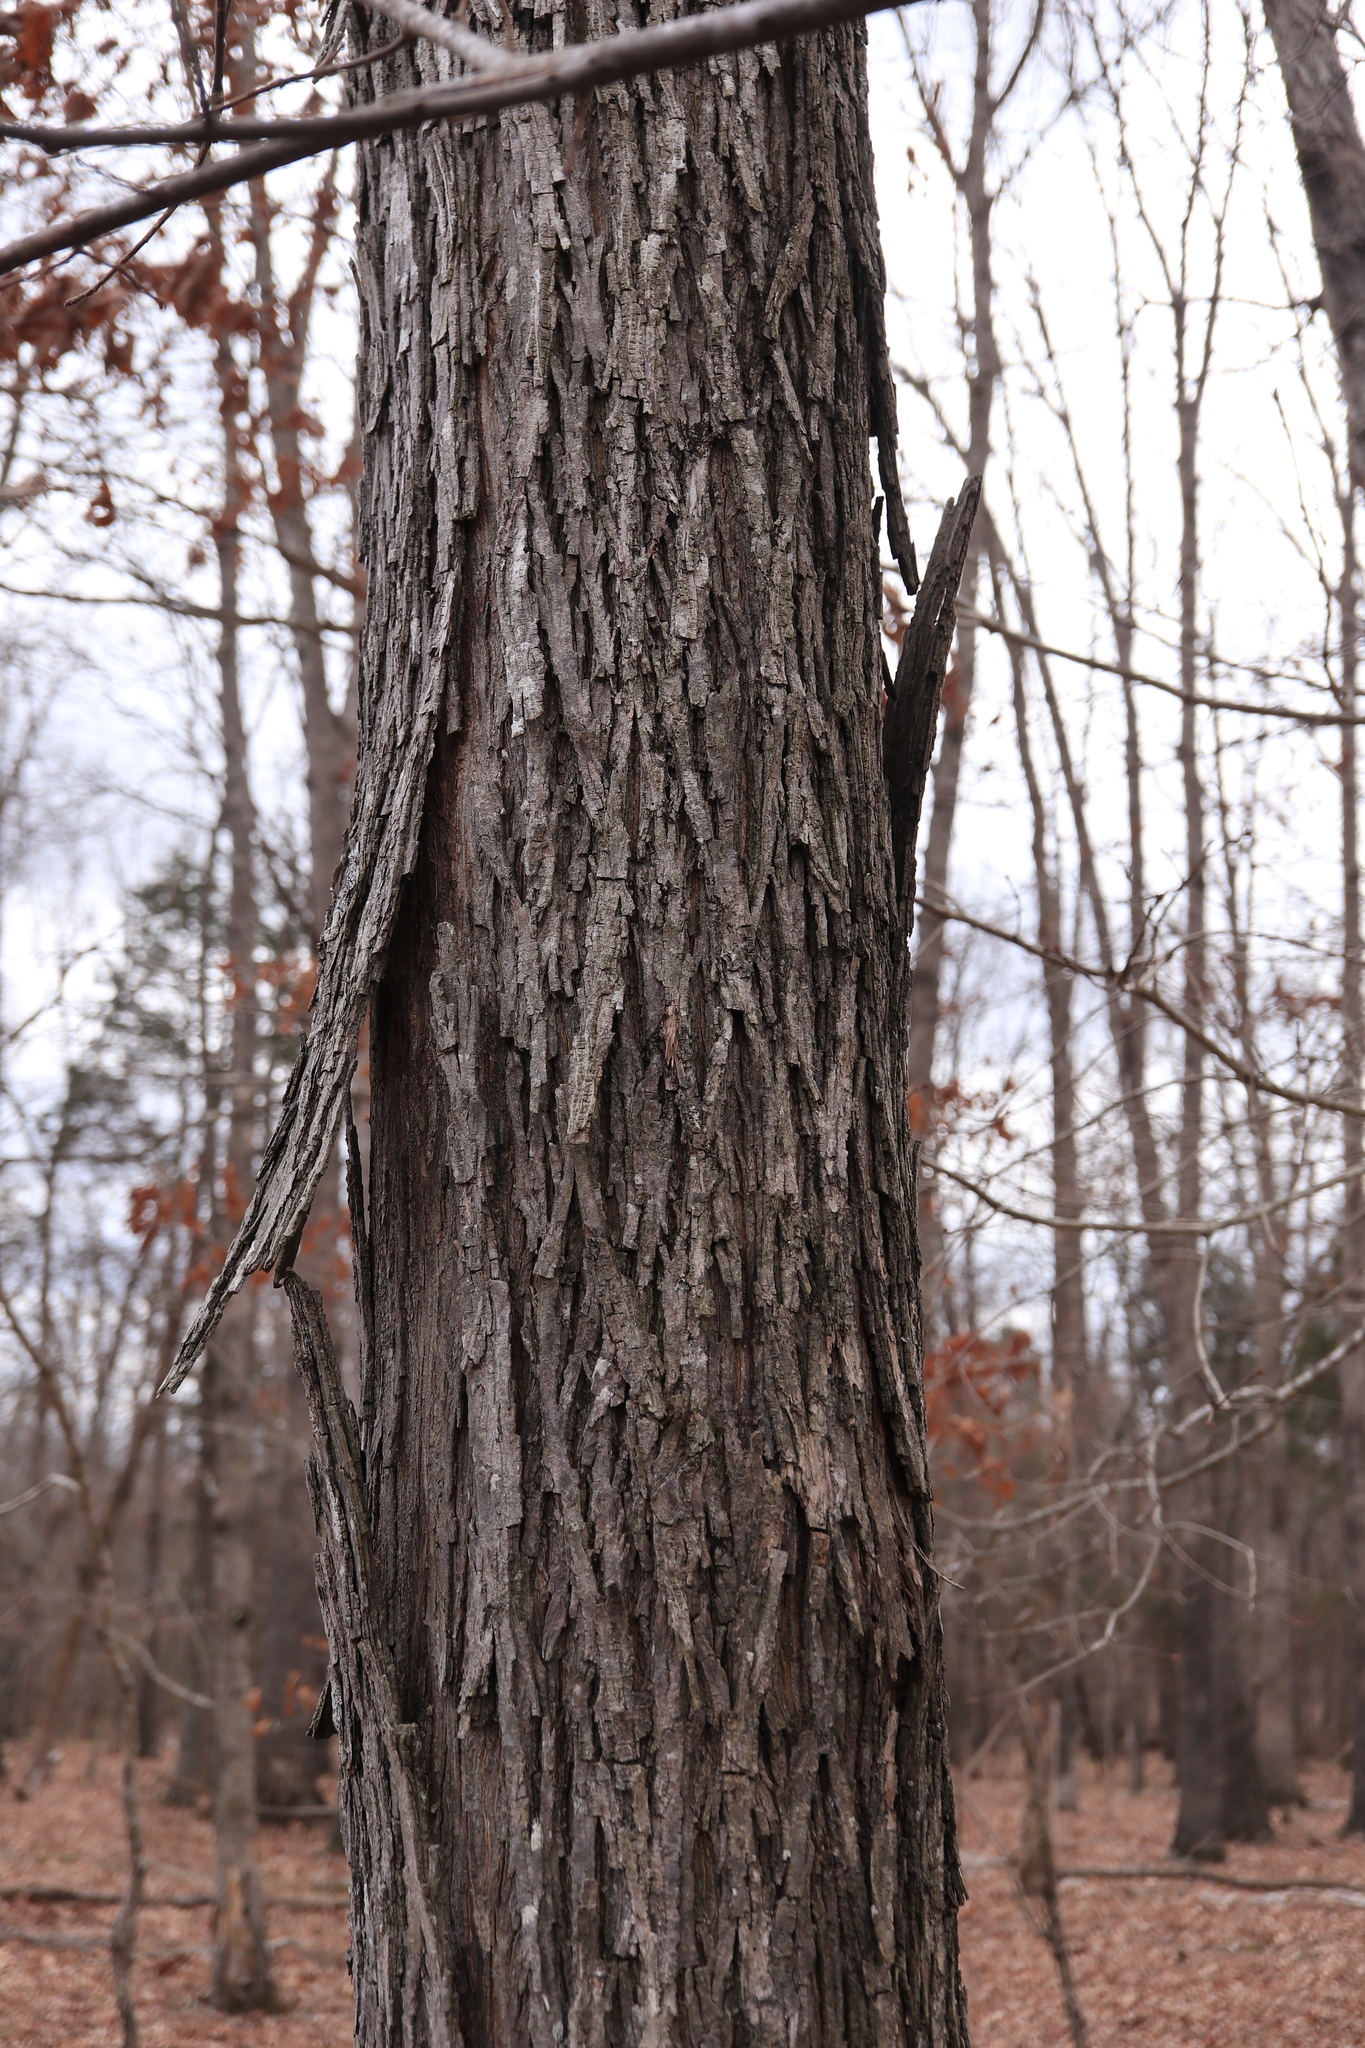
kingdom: Plantae
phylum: Tracheophyta
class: Magnoliopsida
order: Fagales
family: Juglandaceae
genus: Carya
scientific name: Carya ovalis
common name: False shagbark
